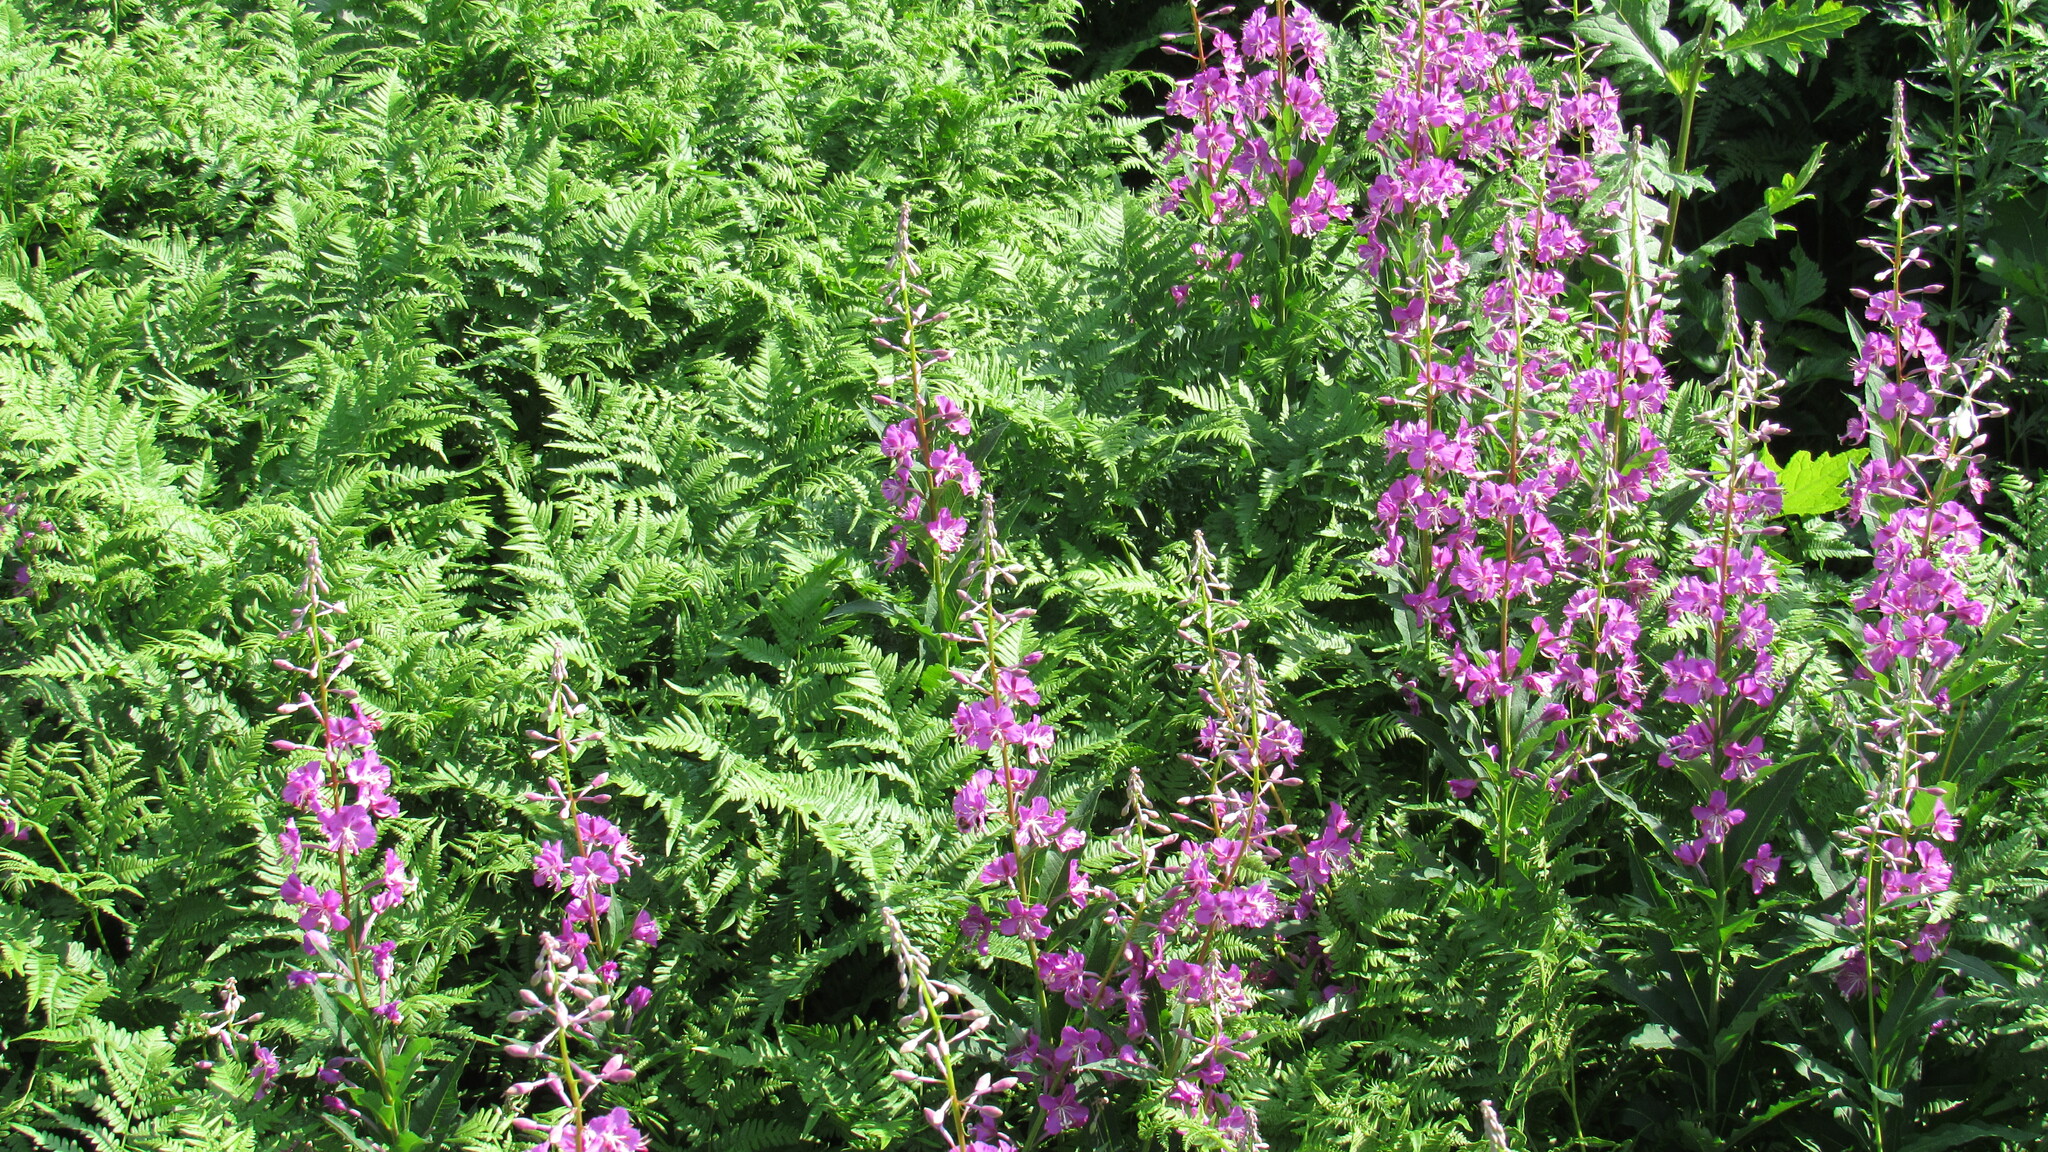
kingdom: Plantae
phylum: Tracheophyta
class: Magnoliopsida
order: Myrtales
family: Onagraceae
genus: Chamaenerion
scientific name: Chamaenerion angustifolium
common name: Fireweed
